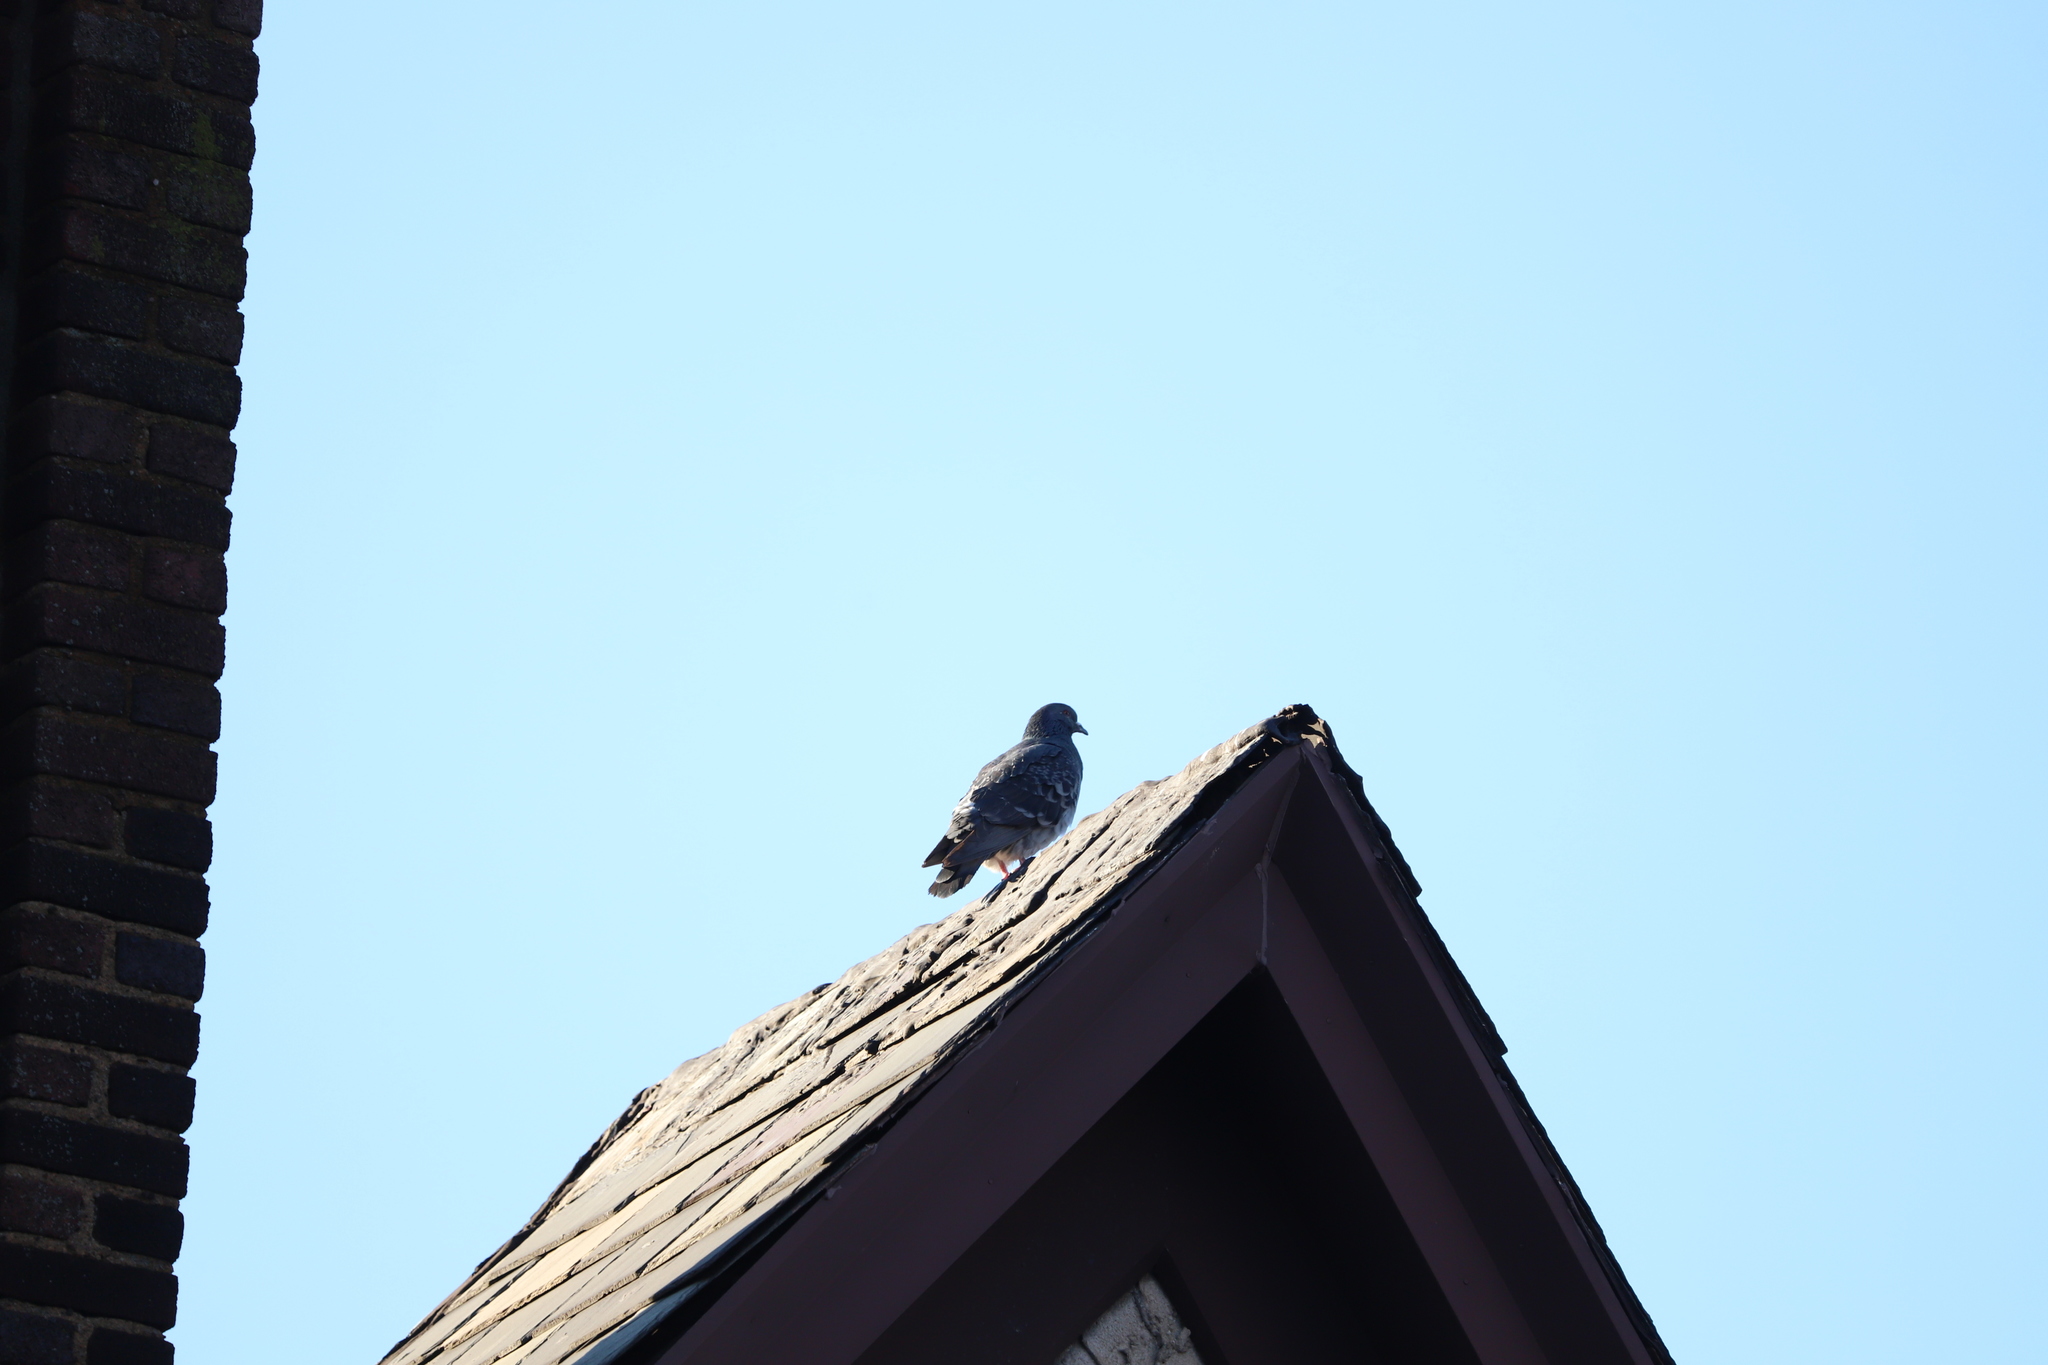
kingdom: Animalia
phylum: Chordata
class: Aves
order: Columbiformes
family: Columbidae
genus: Columba
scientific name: Columba livia
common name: Rock pigeon
